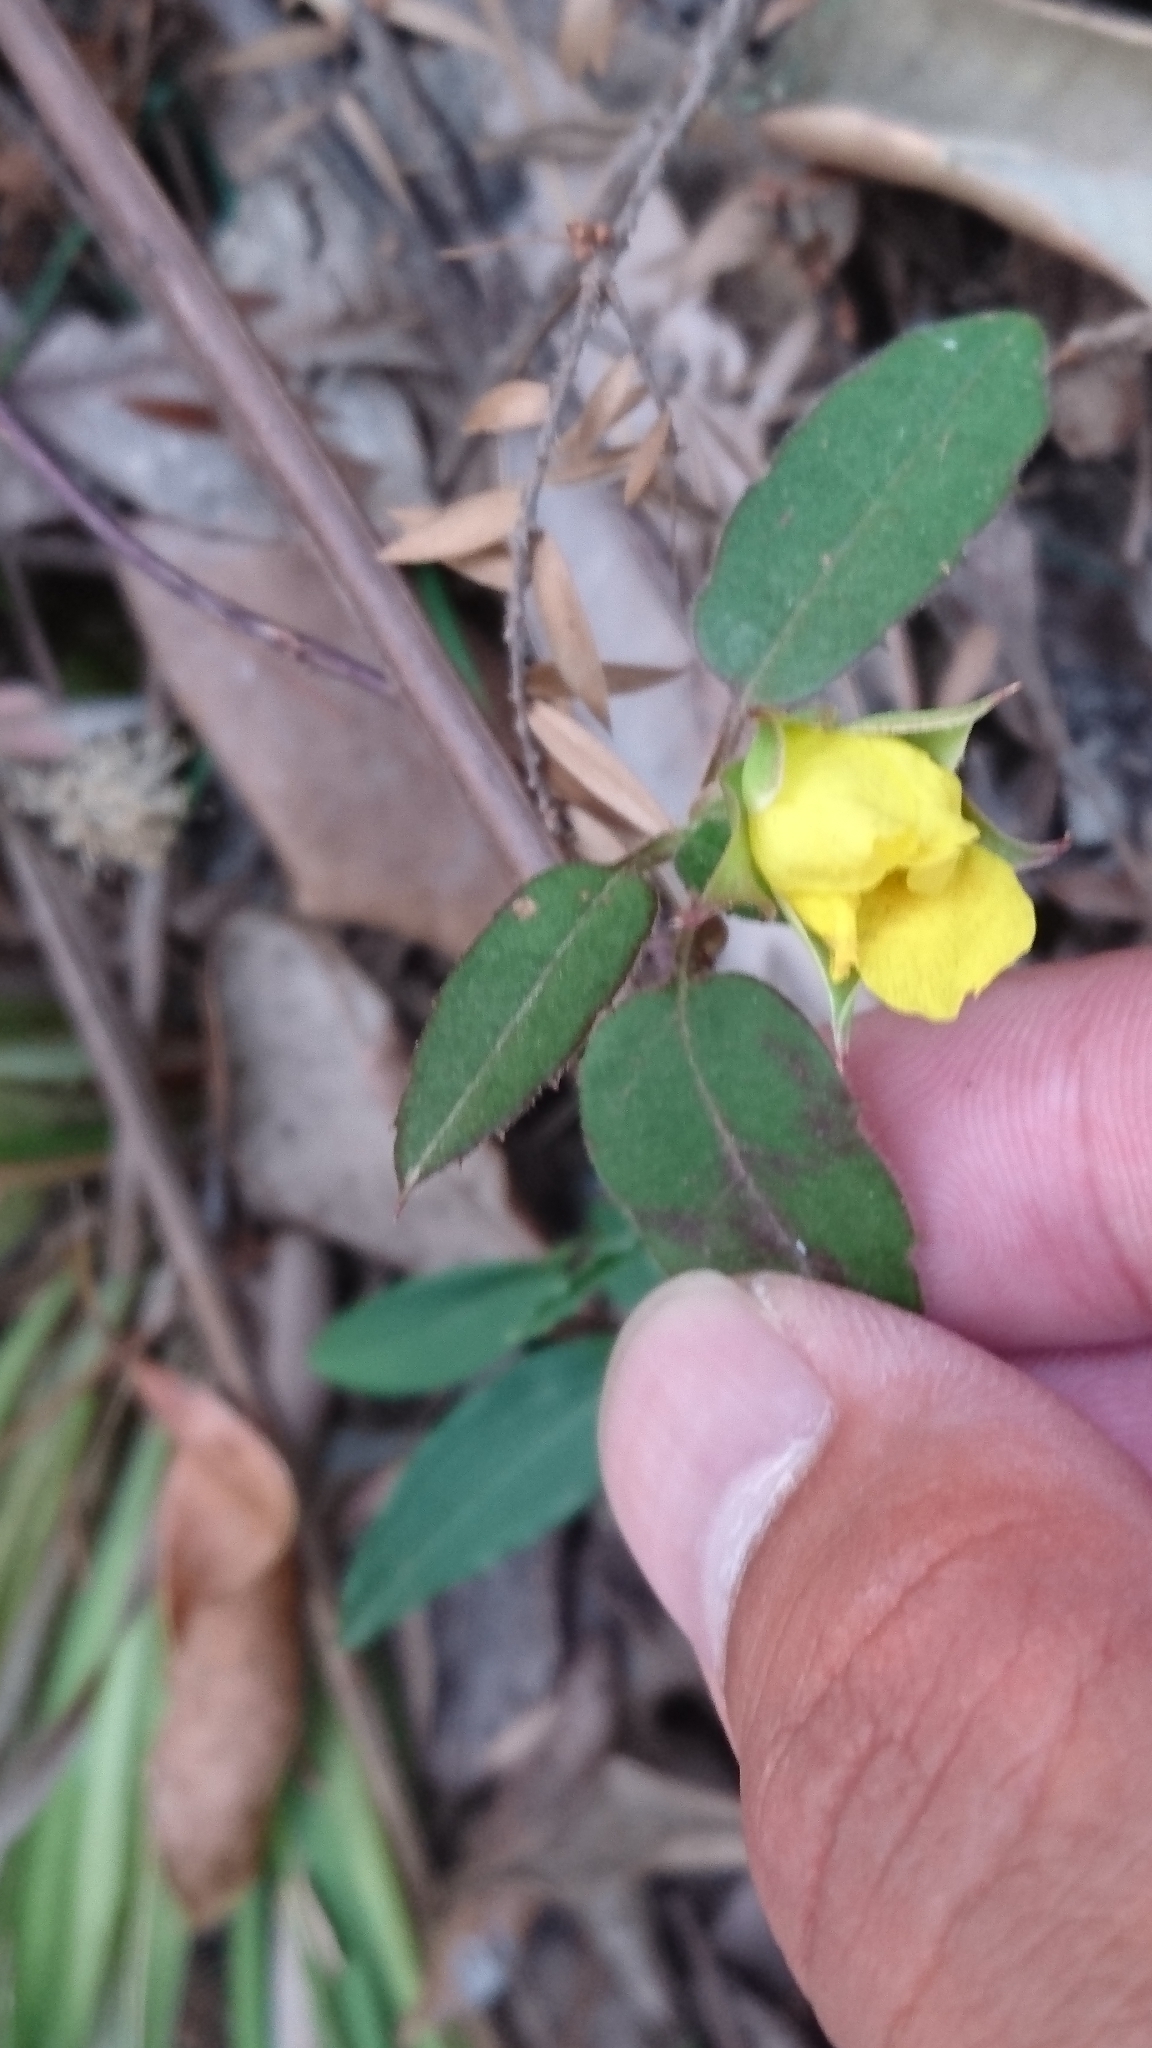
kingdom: Plantae
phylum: Tracheophyta
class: Magnoliopsida
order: Dilleniales
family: Dilleniaceae
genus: Hibbertia
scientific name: Hibbertia dentata
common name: Trailing guinea-flower
